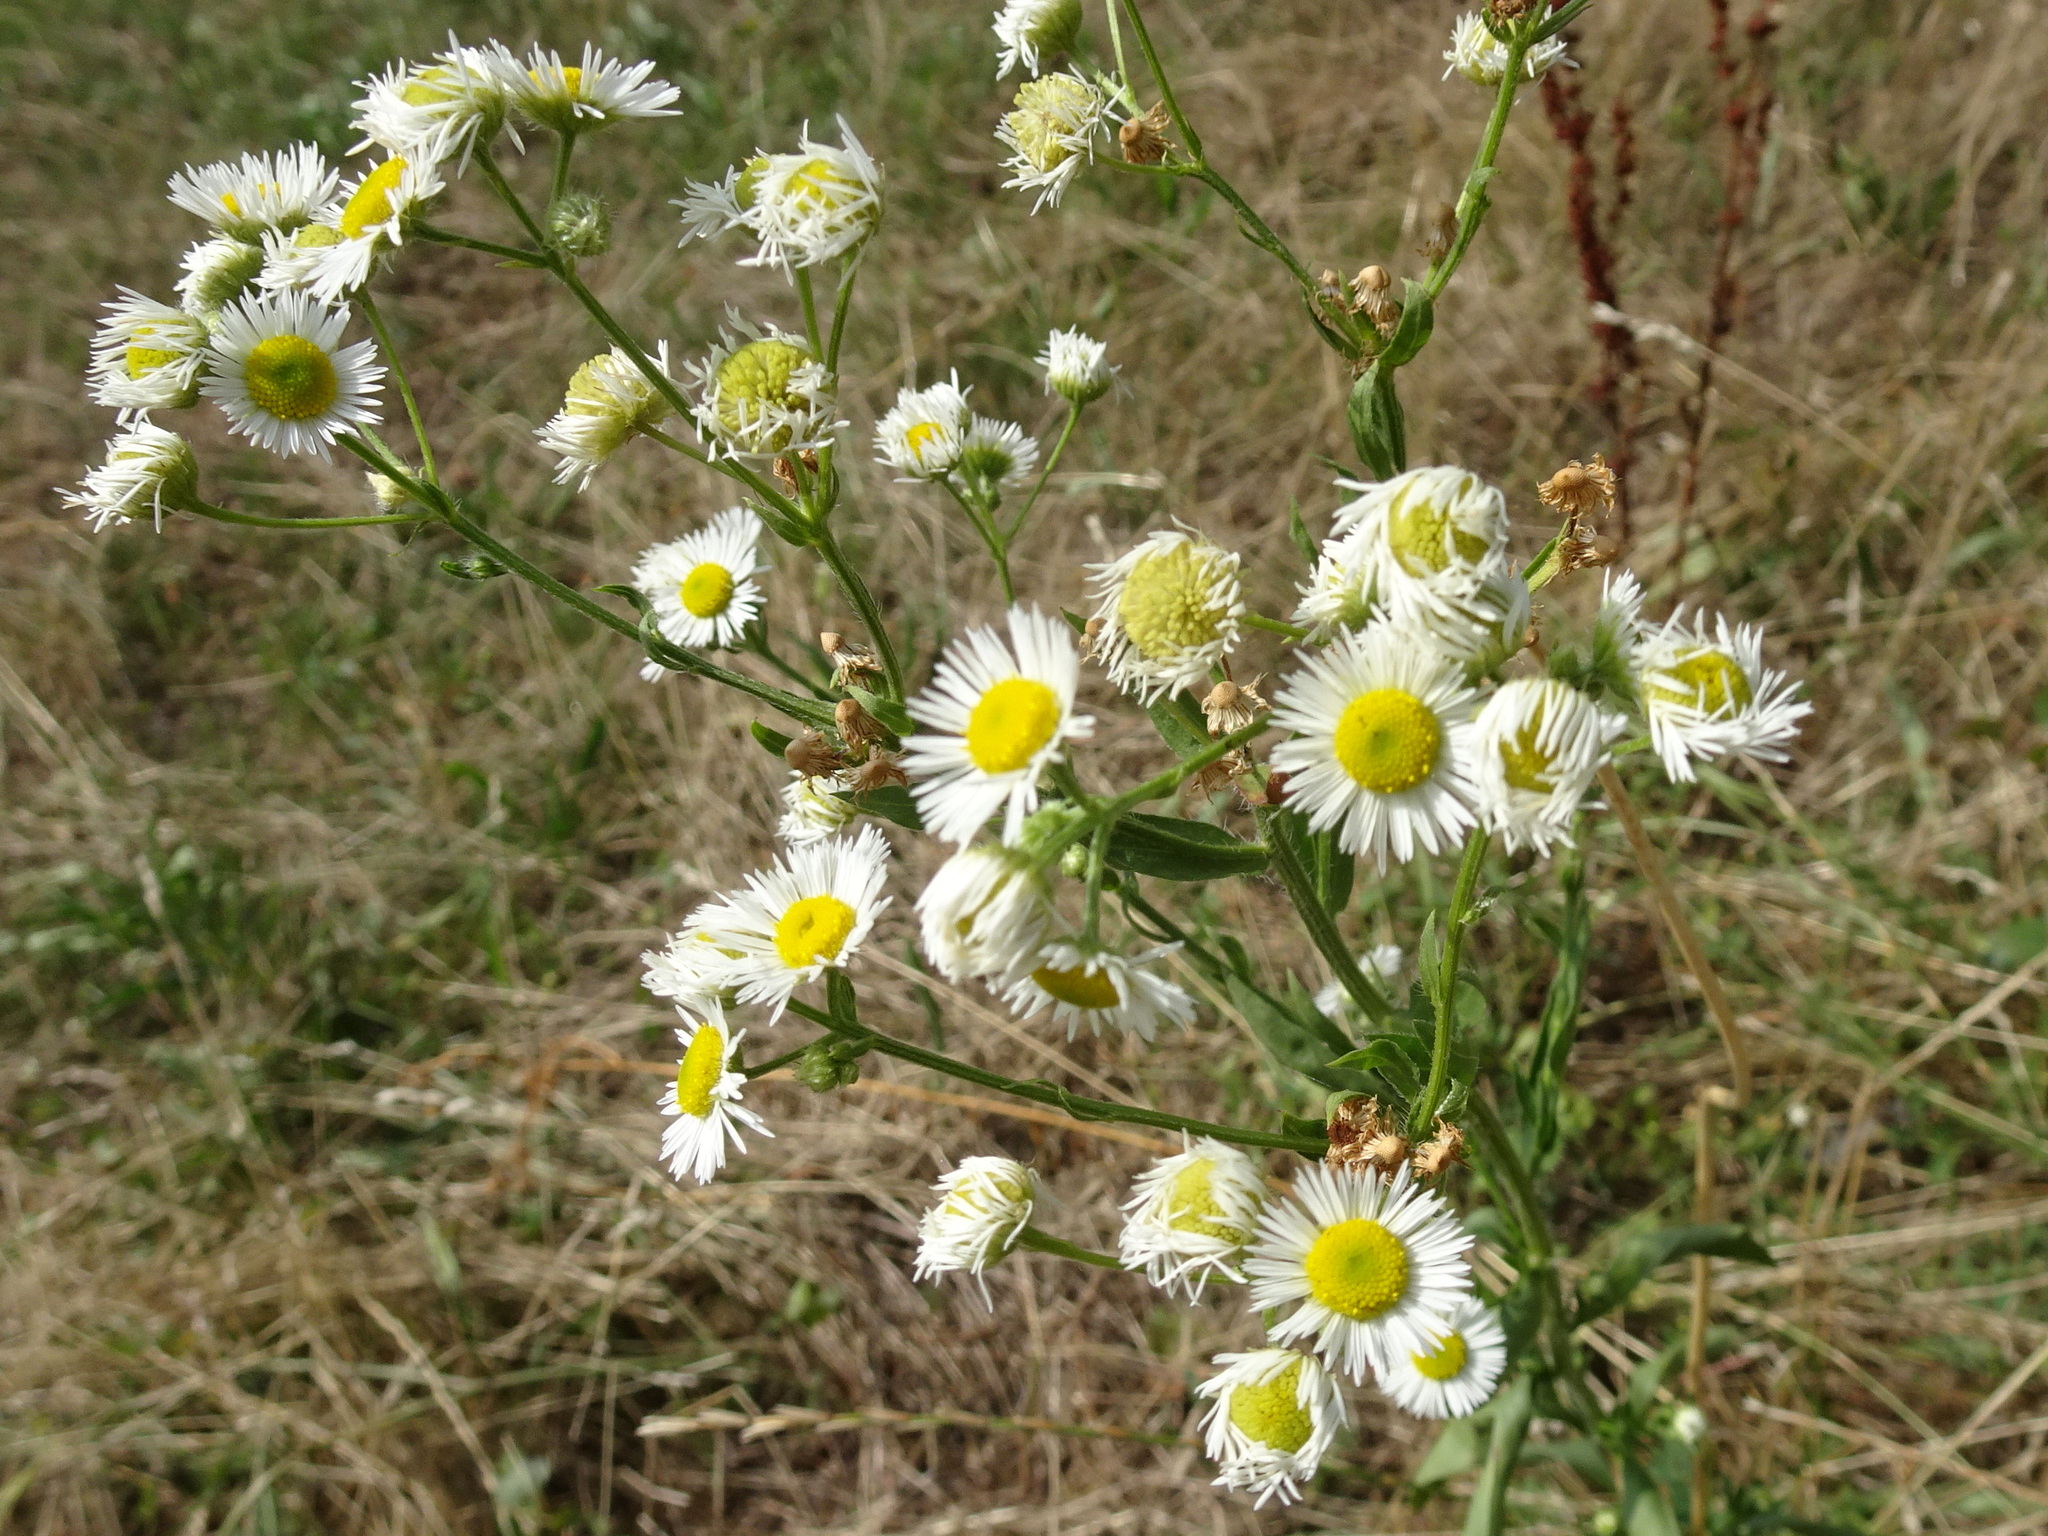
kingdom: Plantae
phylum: Tracheophyta
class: Magnoliopsida
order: Asterales
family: Asteraceae
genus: Erigeron
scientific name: Erigeron annuus
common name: Tall fleabane
